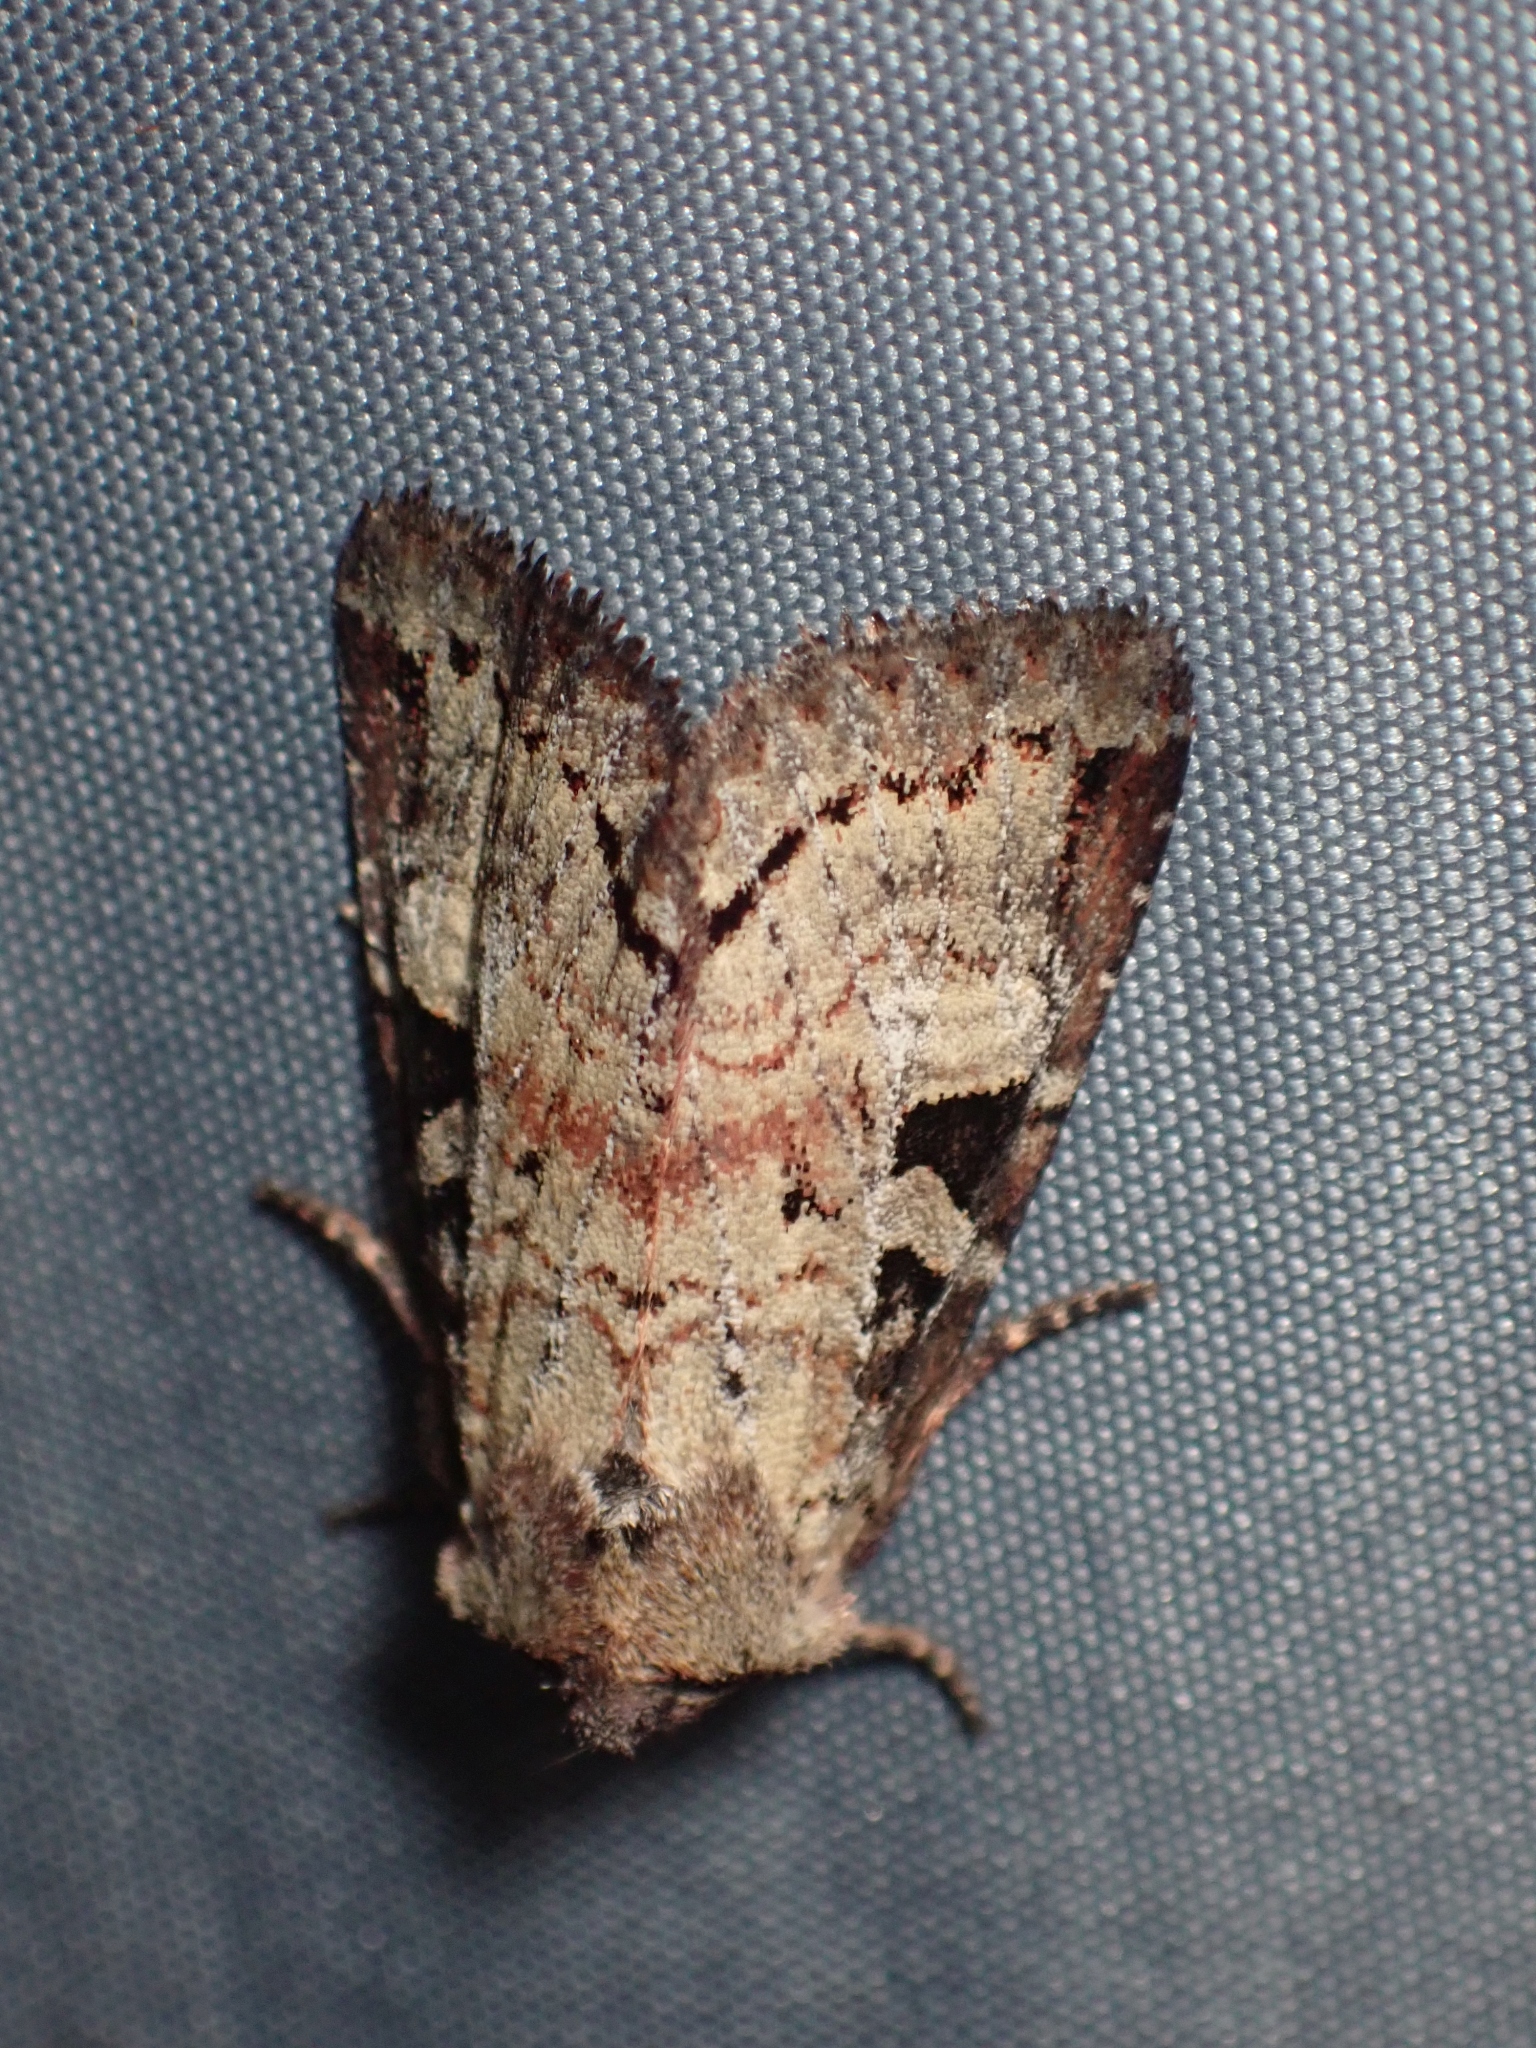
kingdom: Animalia
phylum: Arthropoda
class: Insecta
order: Lepidoptera
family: Noctuidae
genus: Hillia
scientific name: Hillia iris
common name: Iris rover moth
